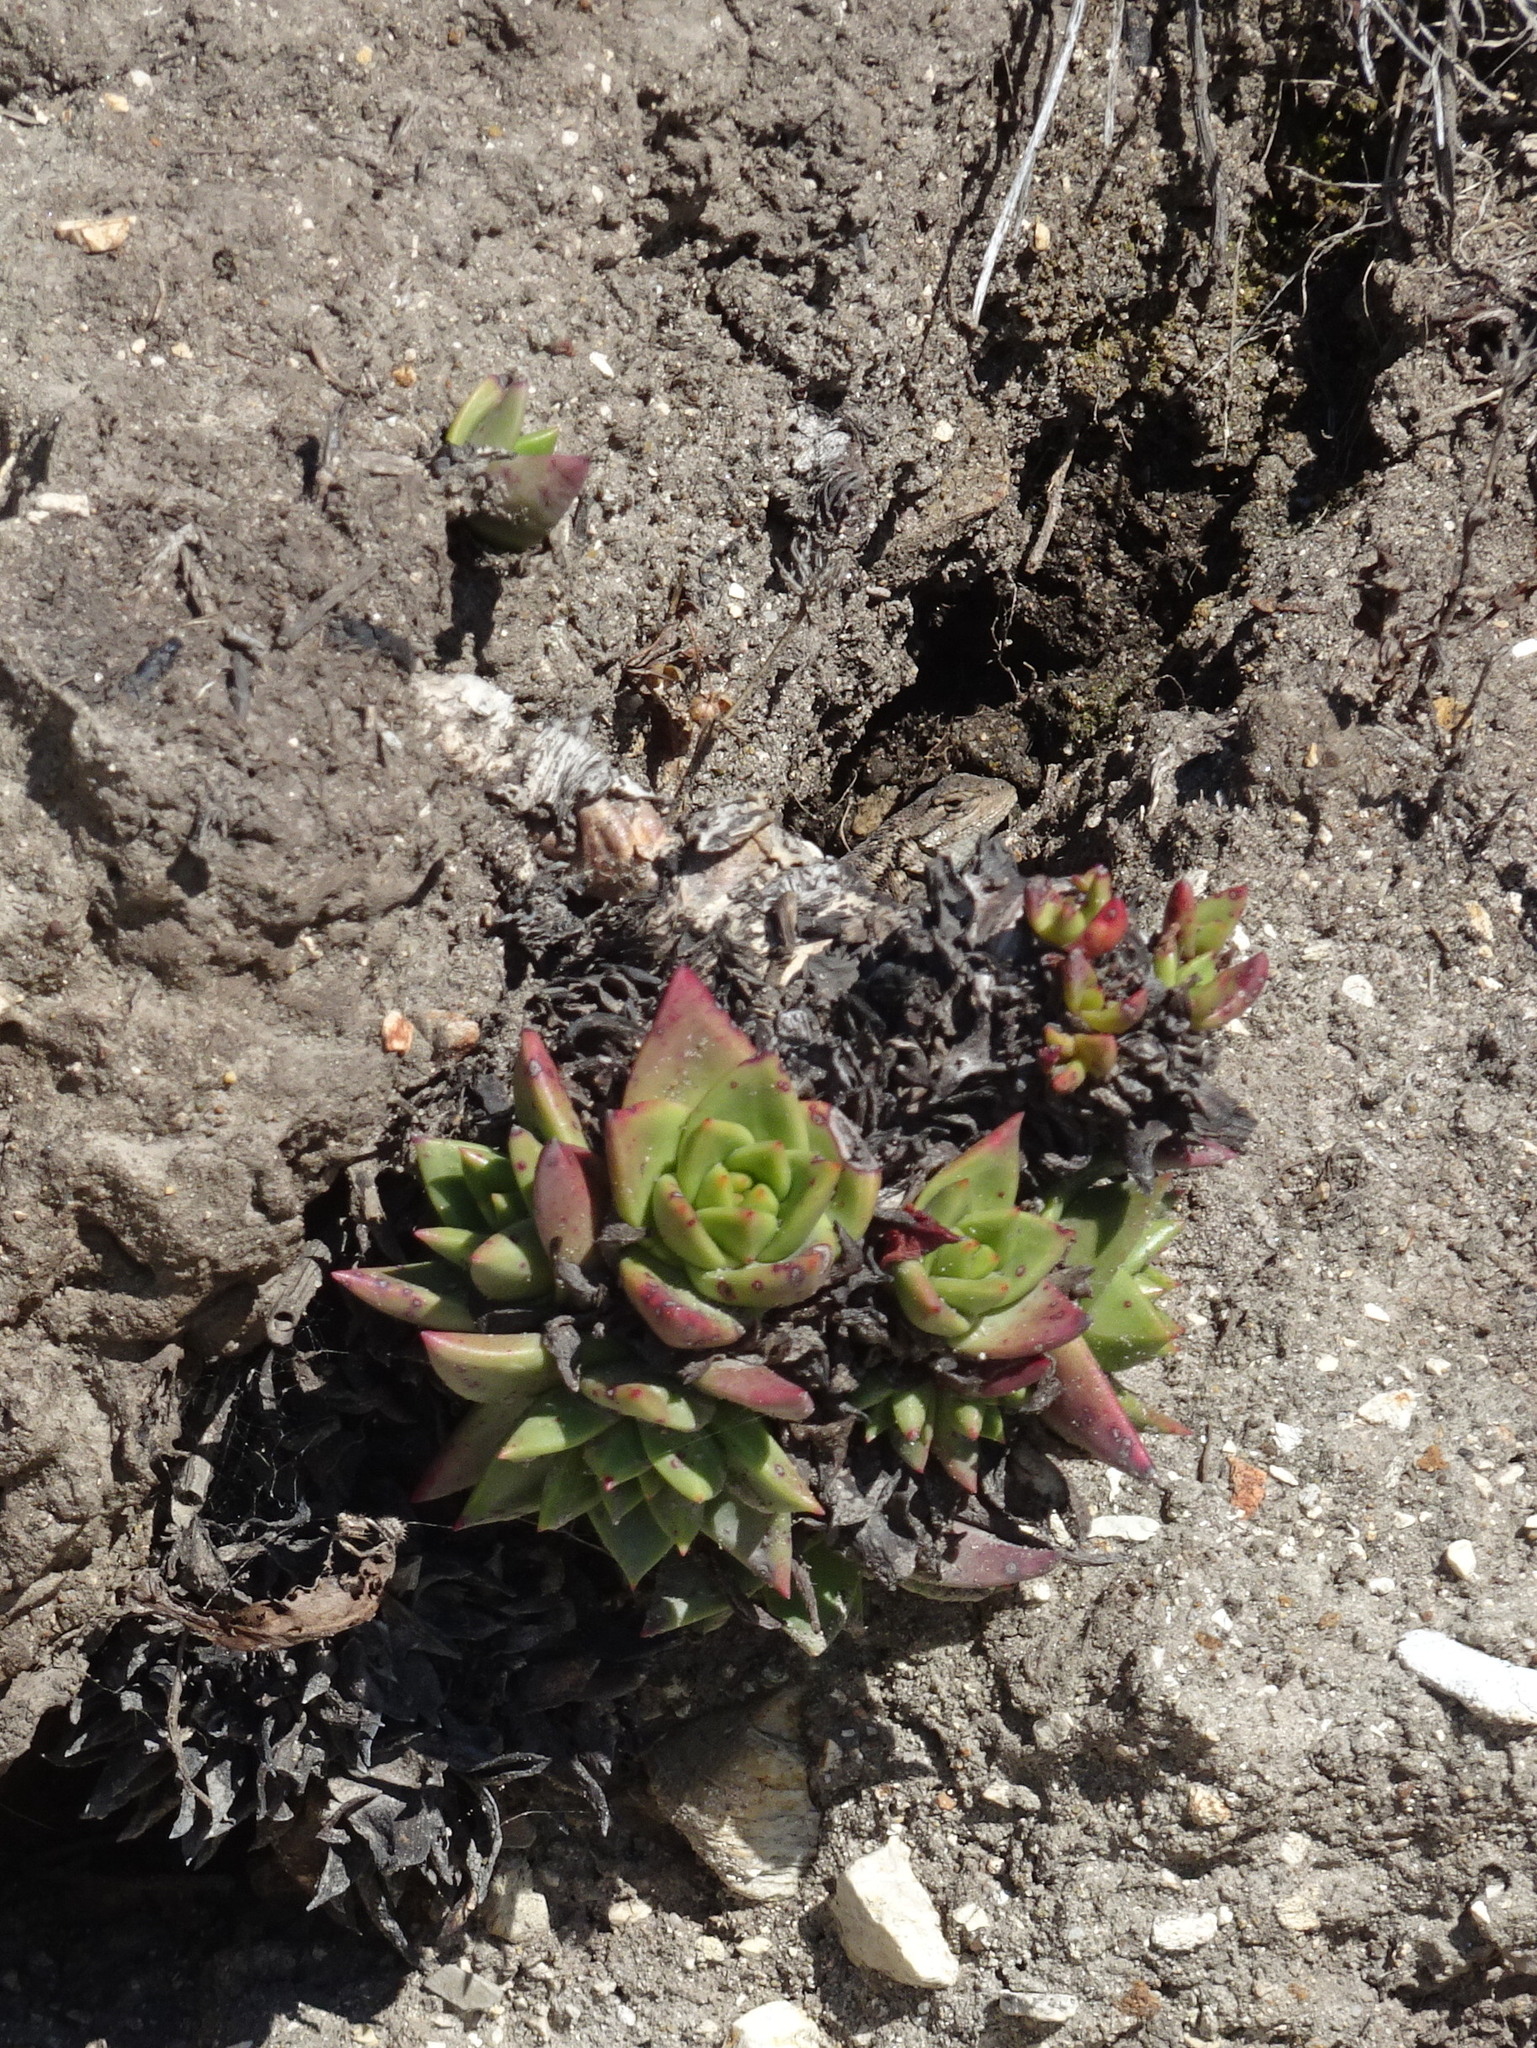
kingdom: Plantae
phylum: Tracheophyta
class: Magnoliopsida
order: Saxifragales
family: Crassulaceae
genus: Dudleya
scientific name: Dudleya farinosa
